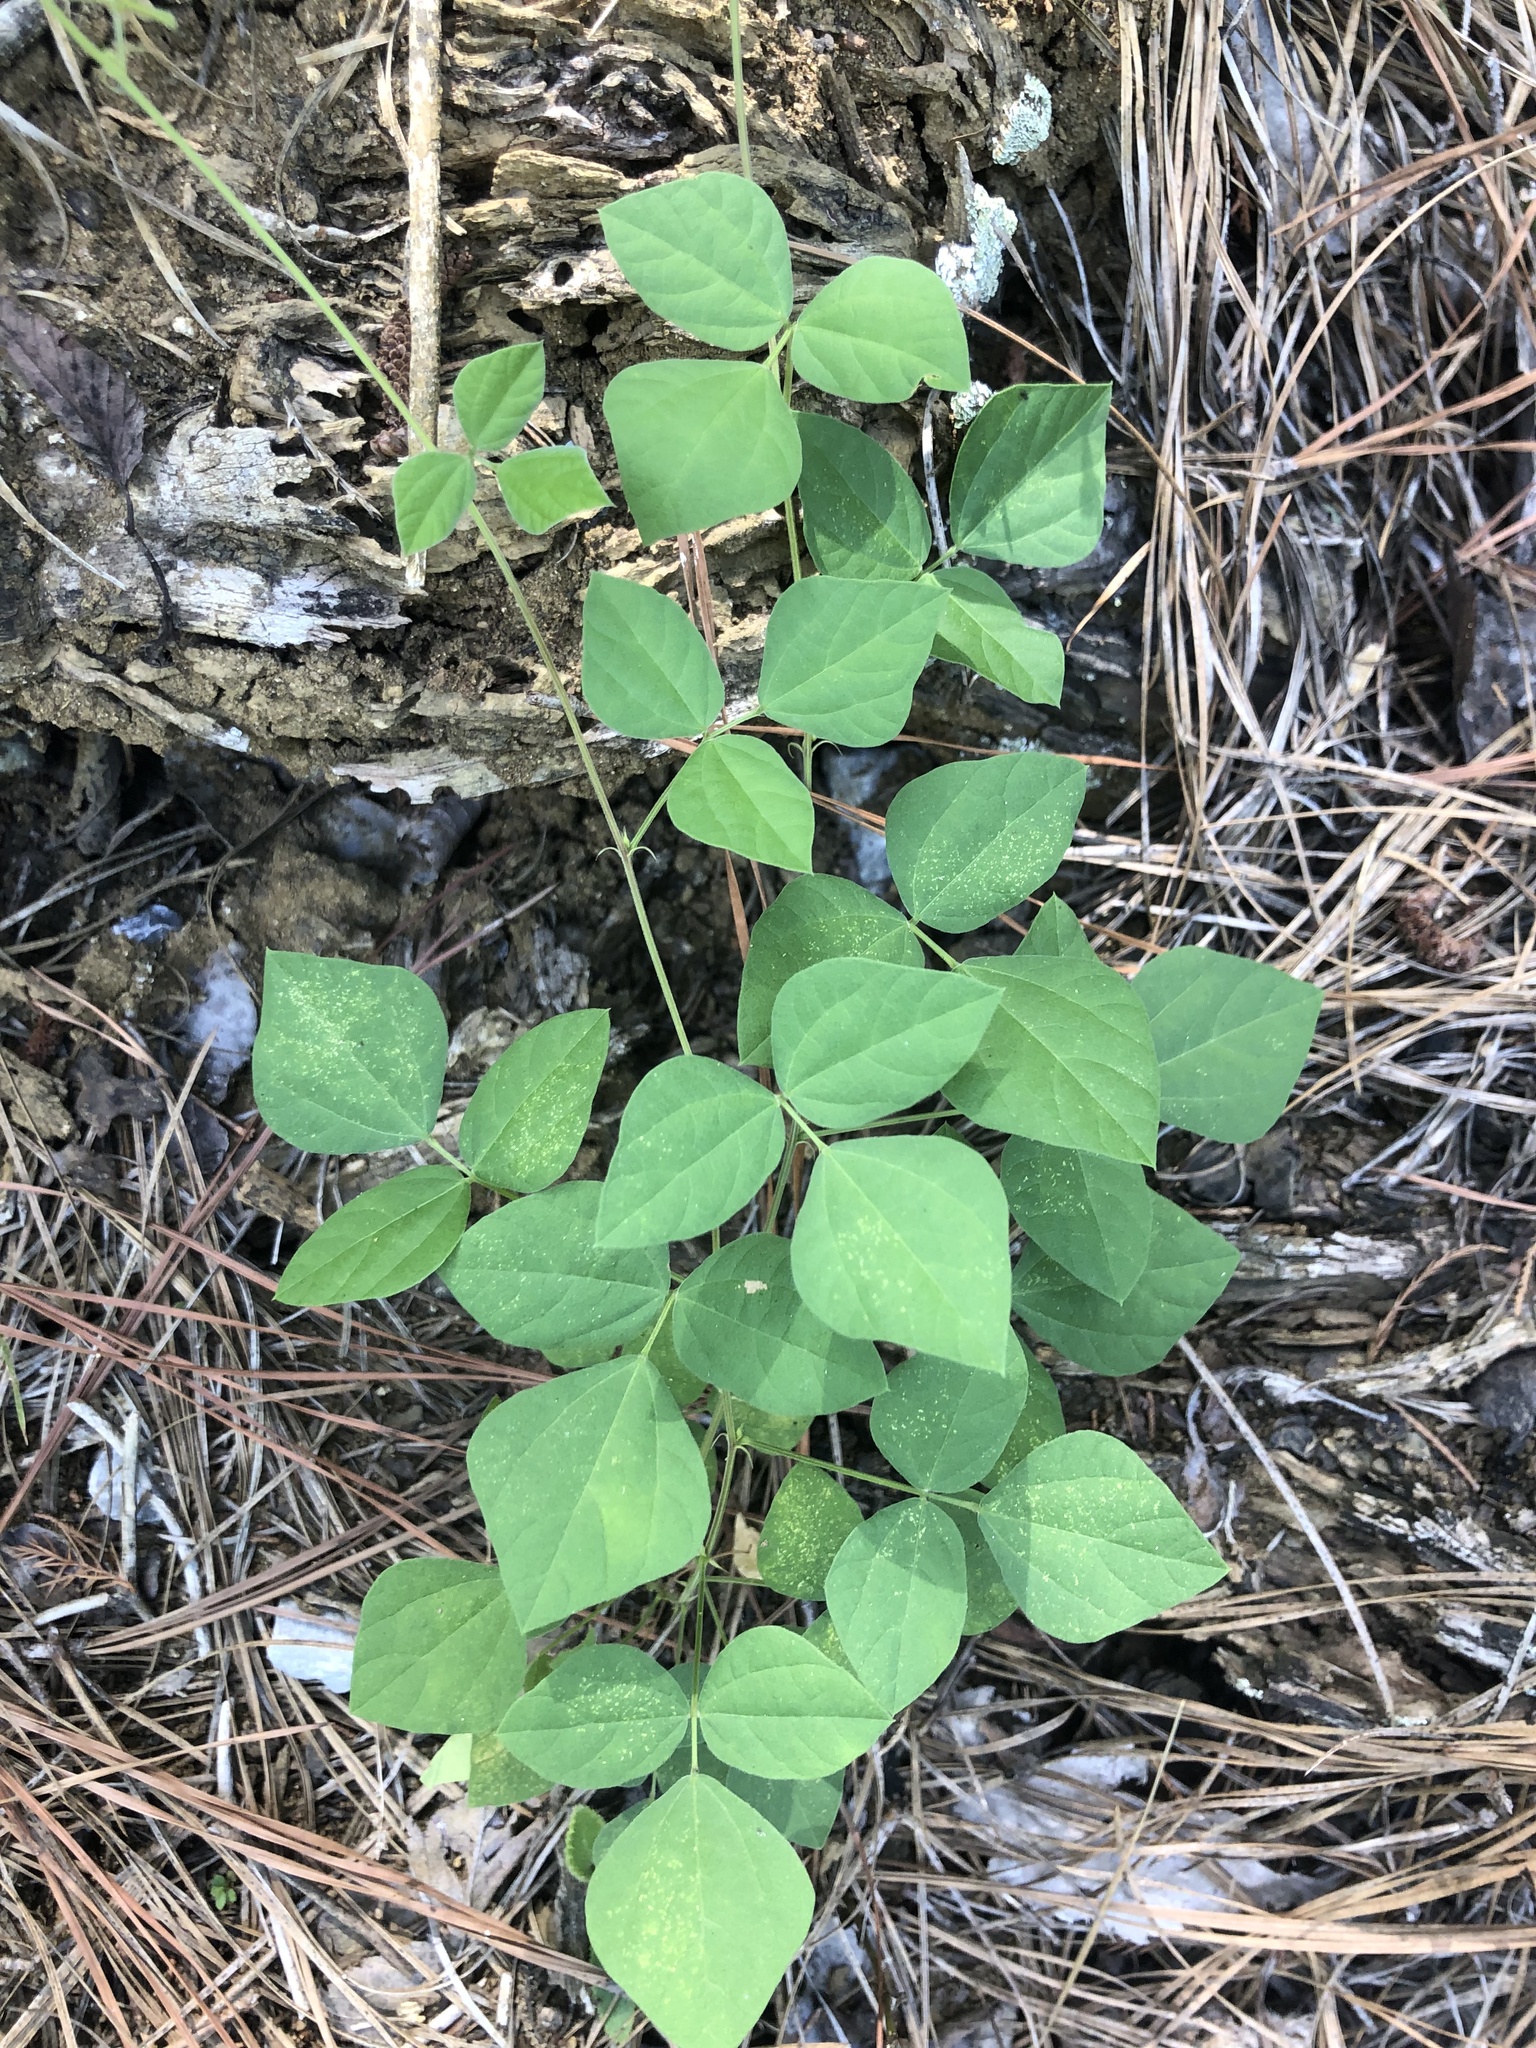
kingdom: Plantae
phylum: Tracheophyta
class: Magnoliopsida
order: Fabales
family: Fabaceae
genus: Rhynchosia
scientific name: Rhynchosia minima
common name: Least snoutbean
